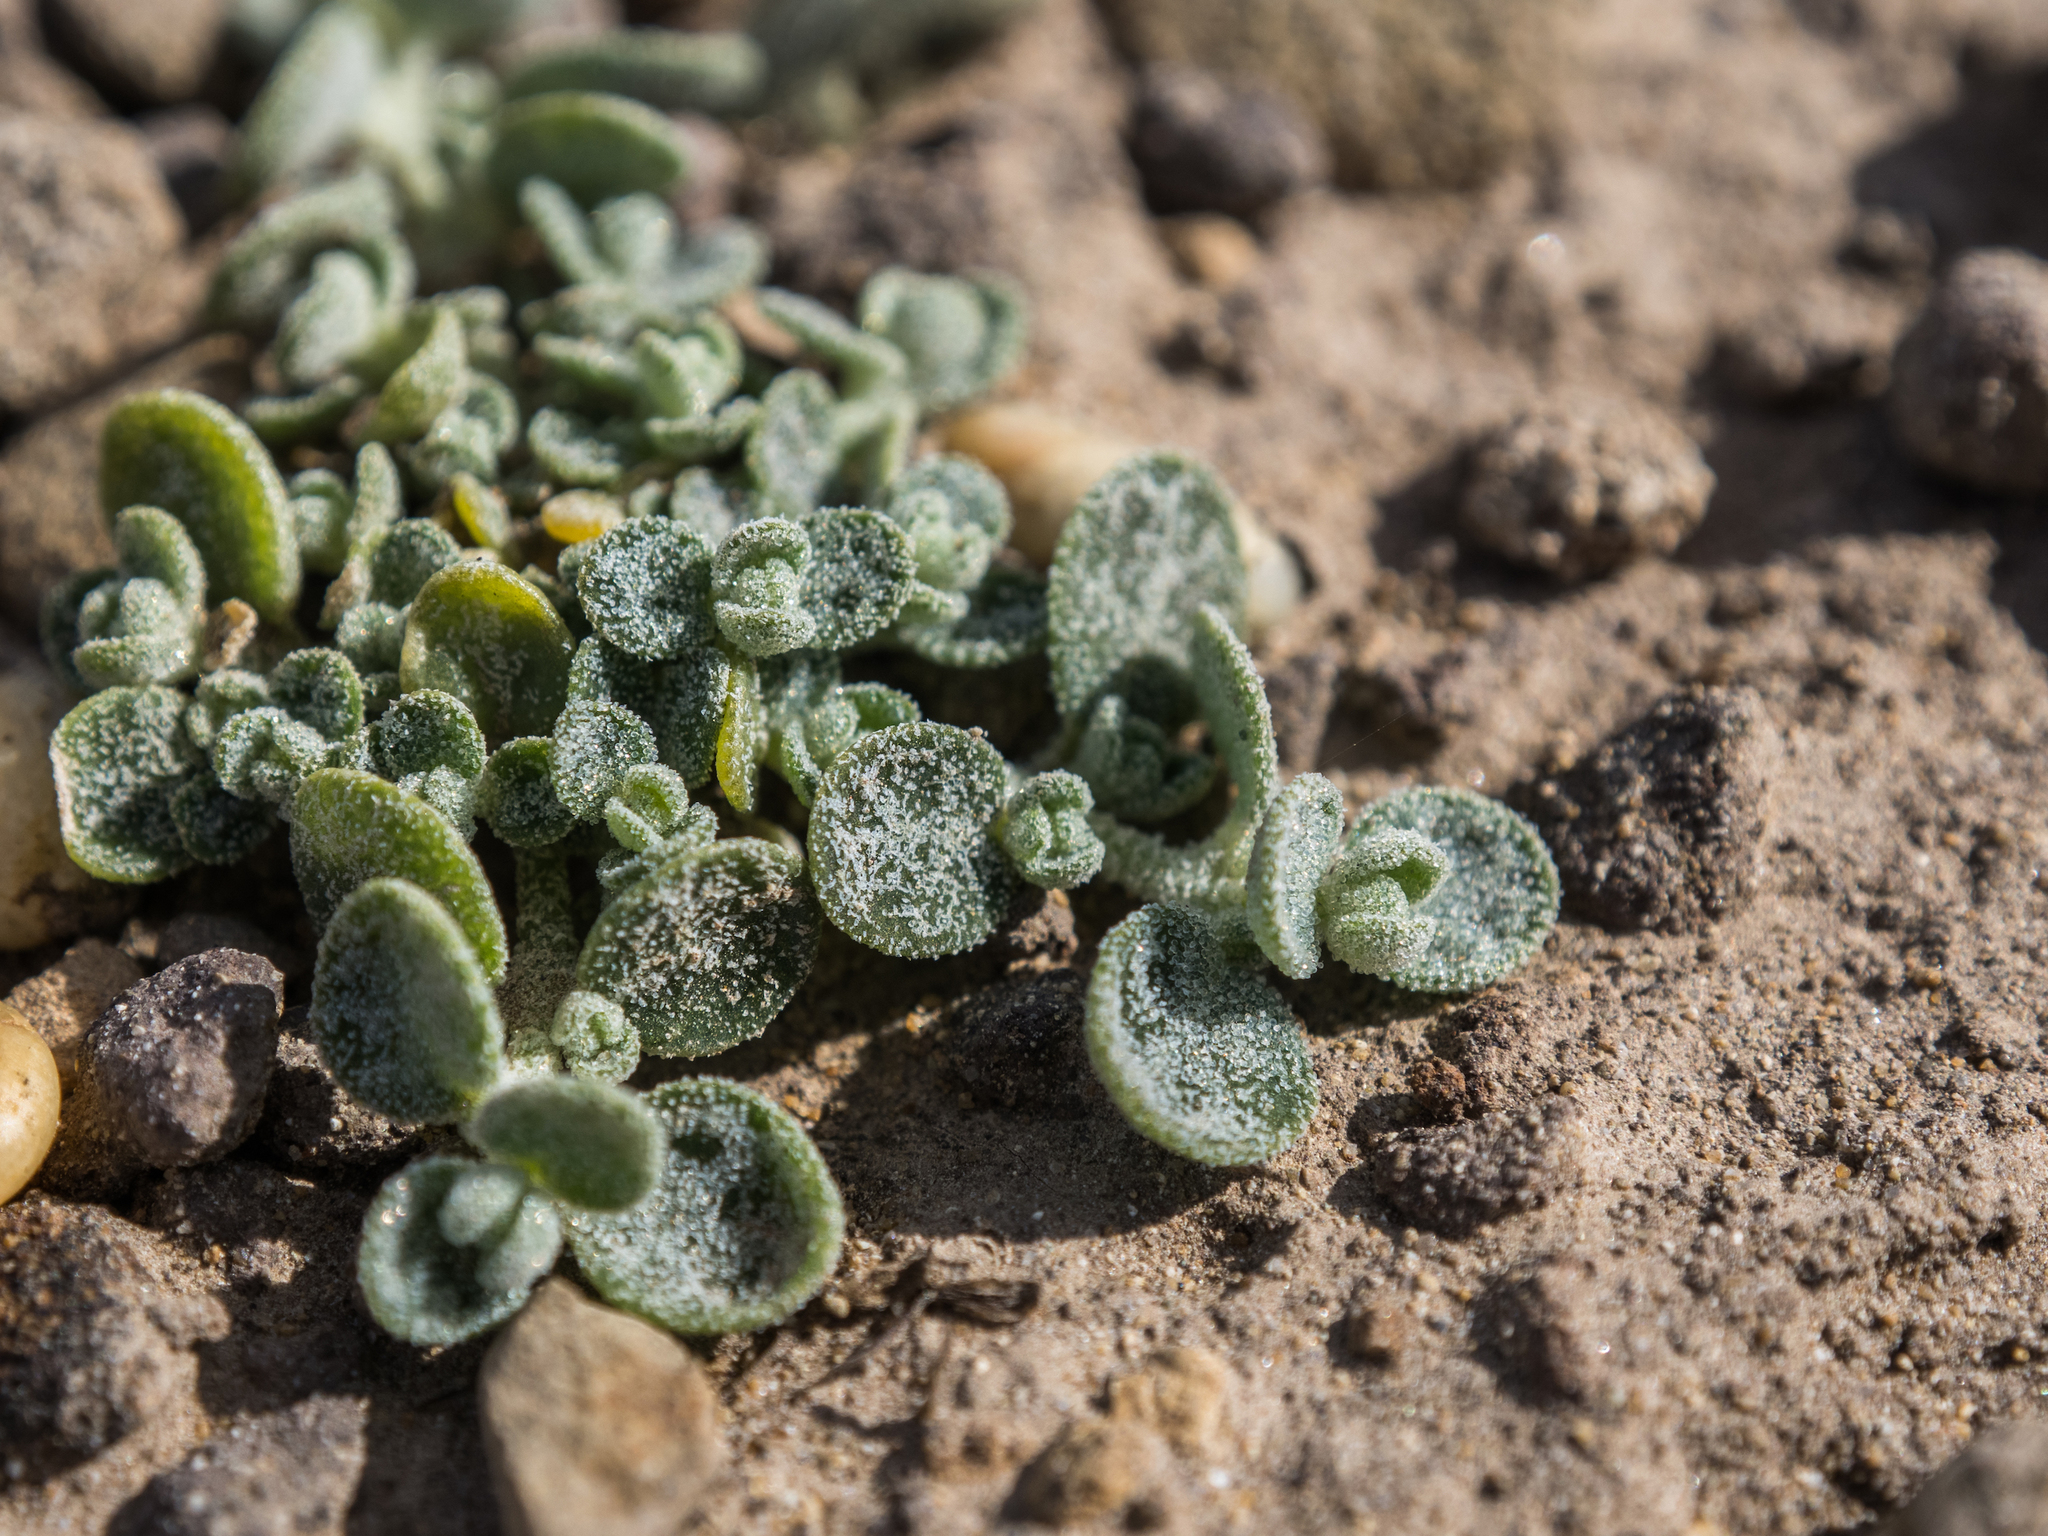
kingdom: Plantae
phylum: Tracheophyta
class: Magnoliopsida
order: Caryophyllales
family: Amaranthaceae
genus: Atriplex
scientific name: Atriplex buchananii
